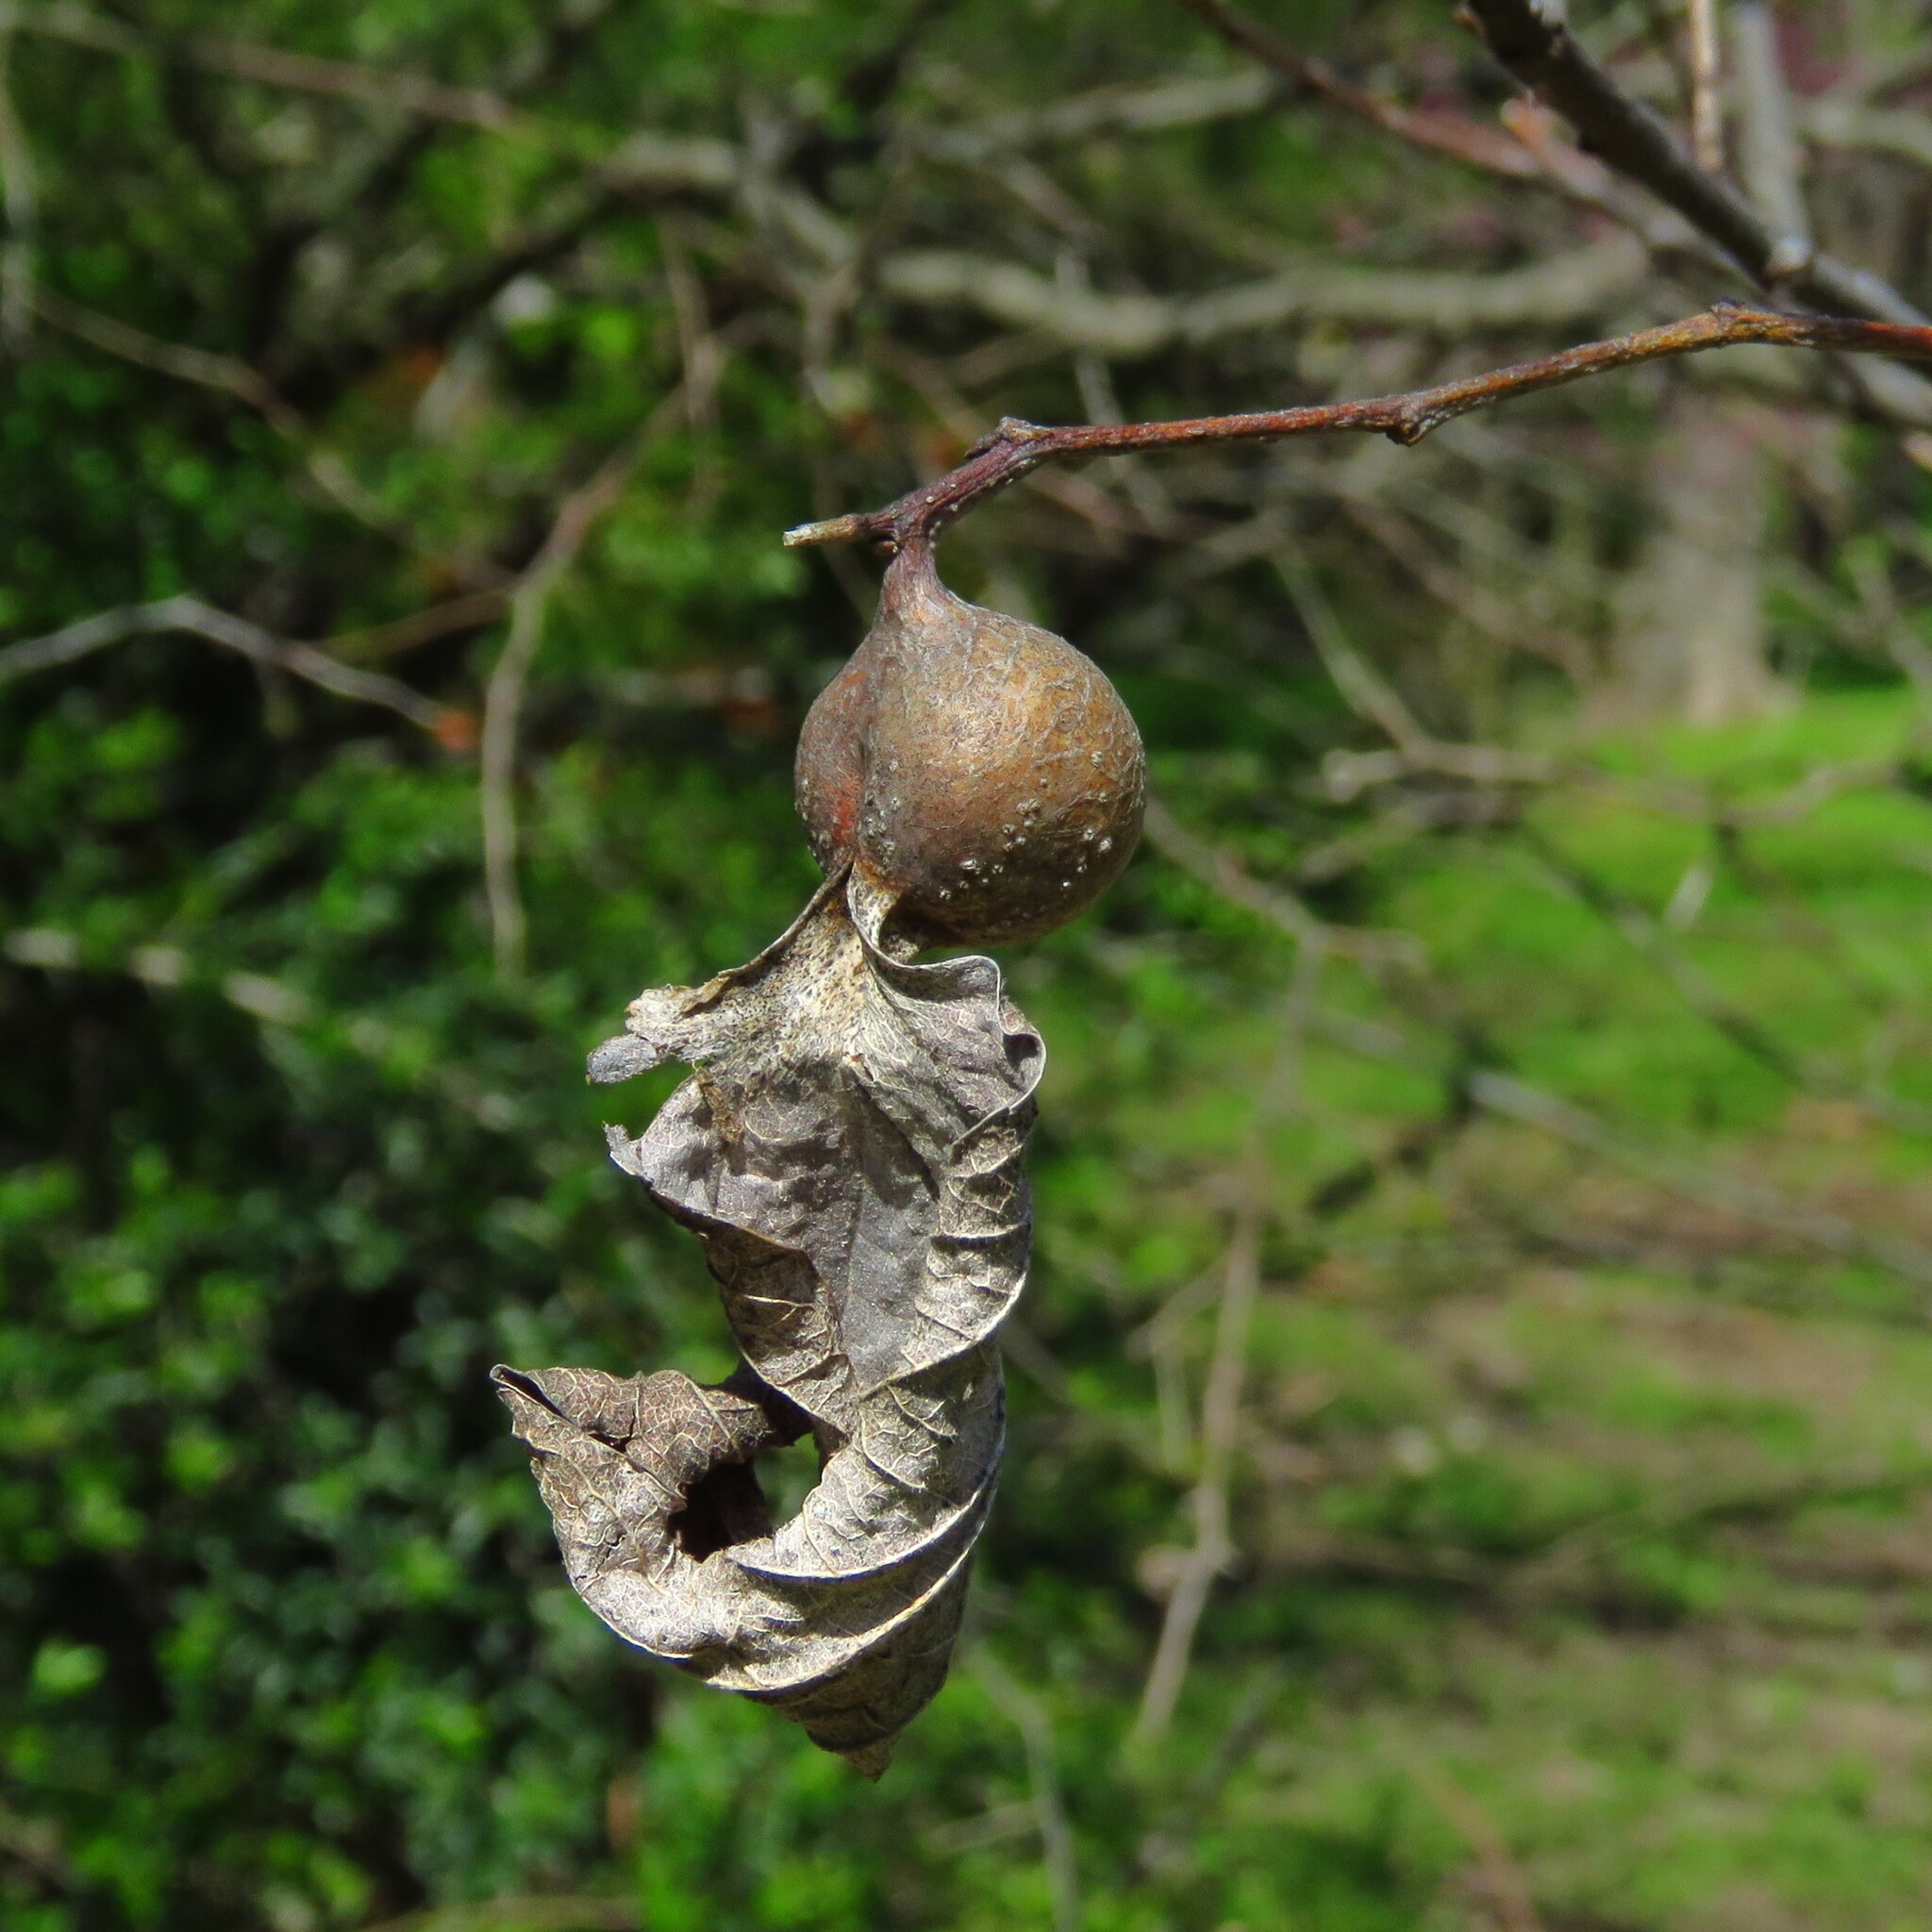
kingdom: Animalia
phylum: Arthropoda
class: Insecta
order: Hemiptera
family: Aphalaridae
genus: Pachypsylla
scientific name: Pachypsylla venusta
